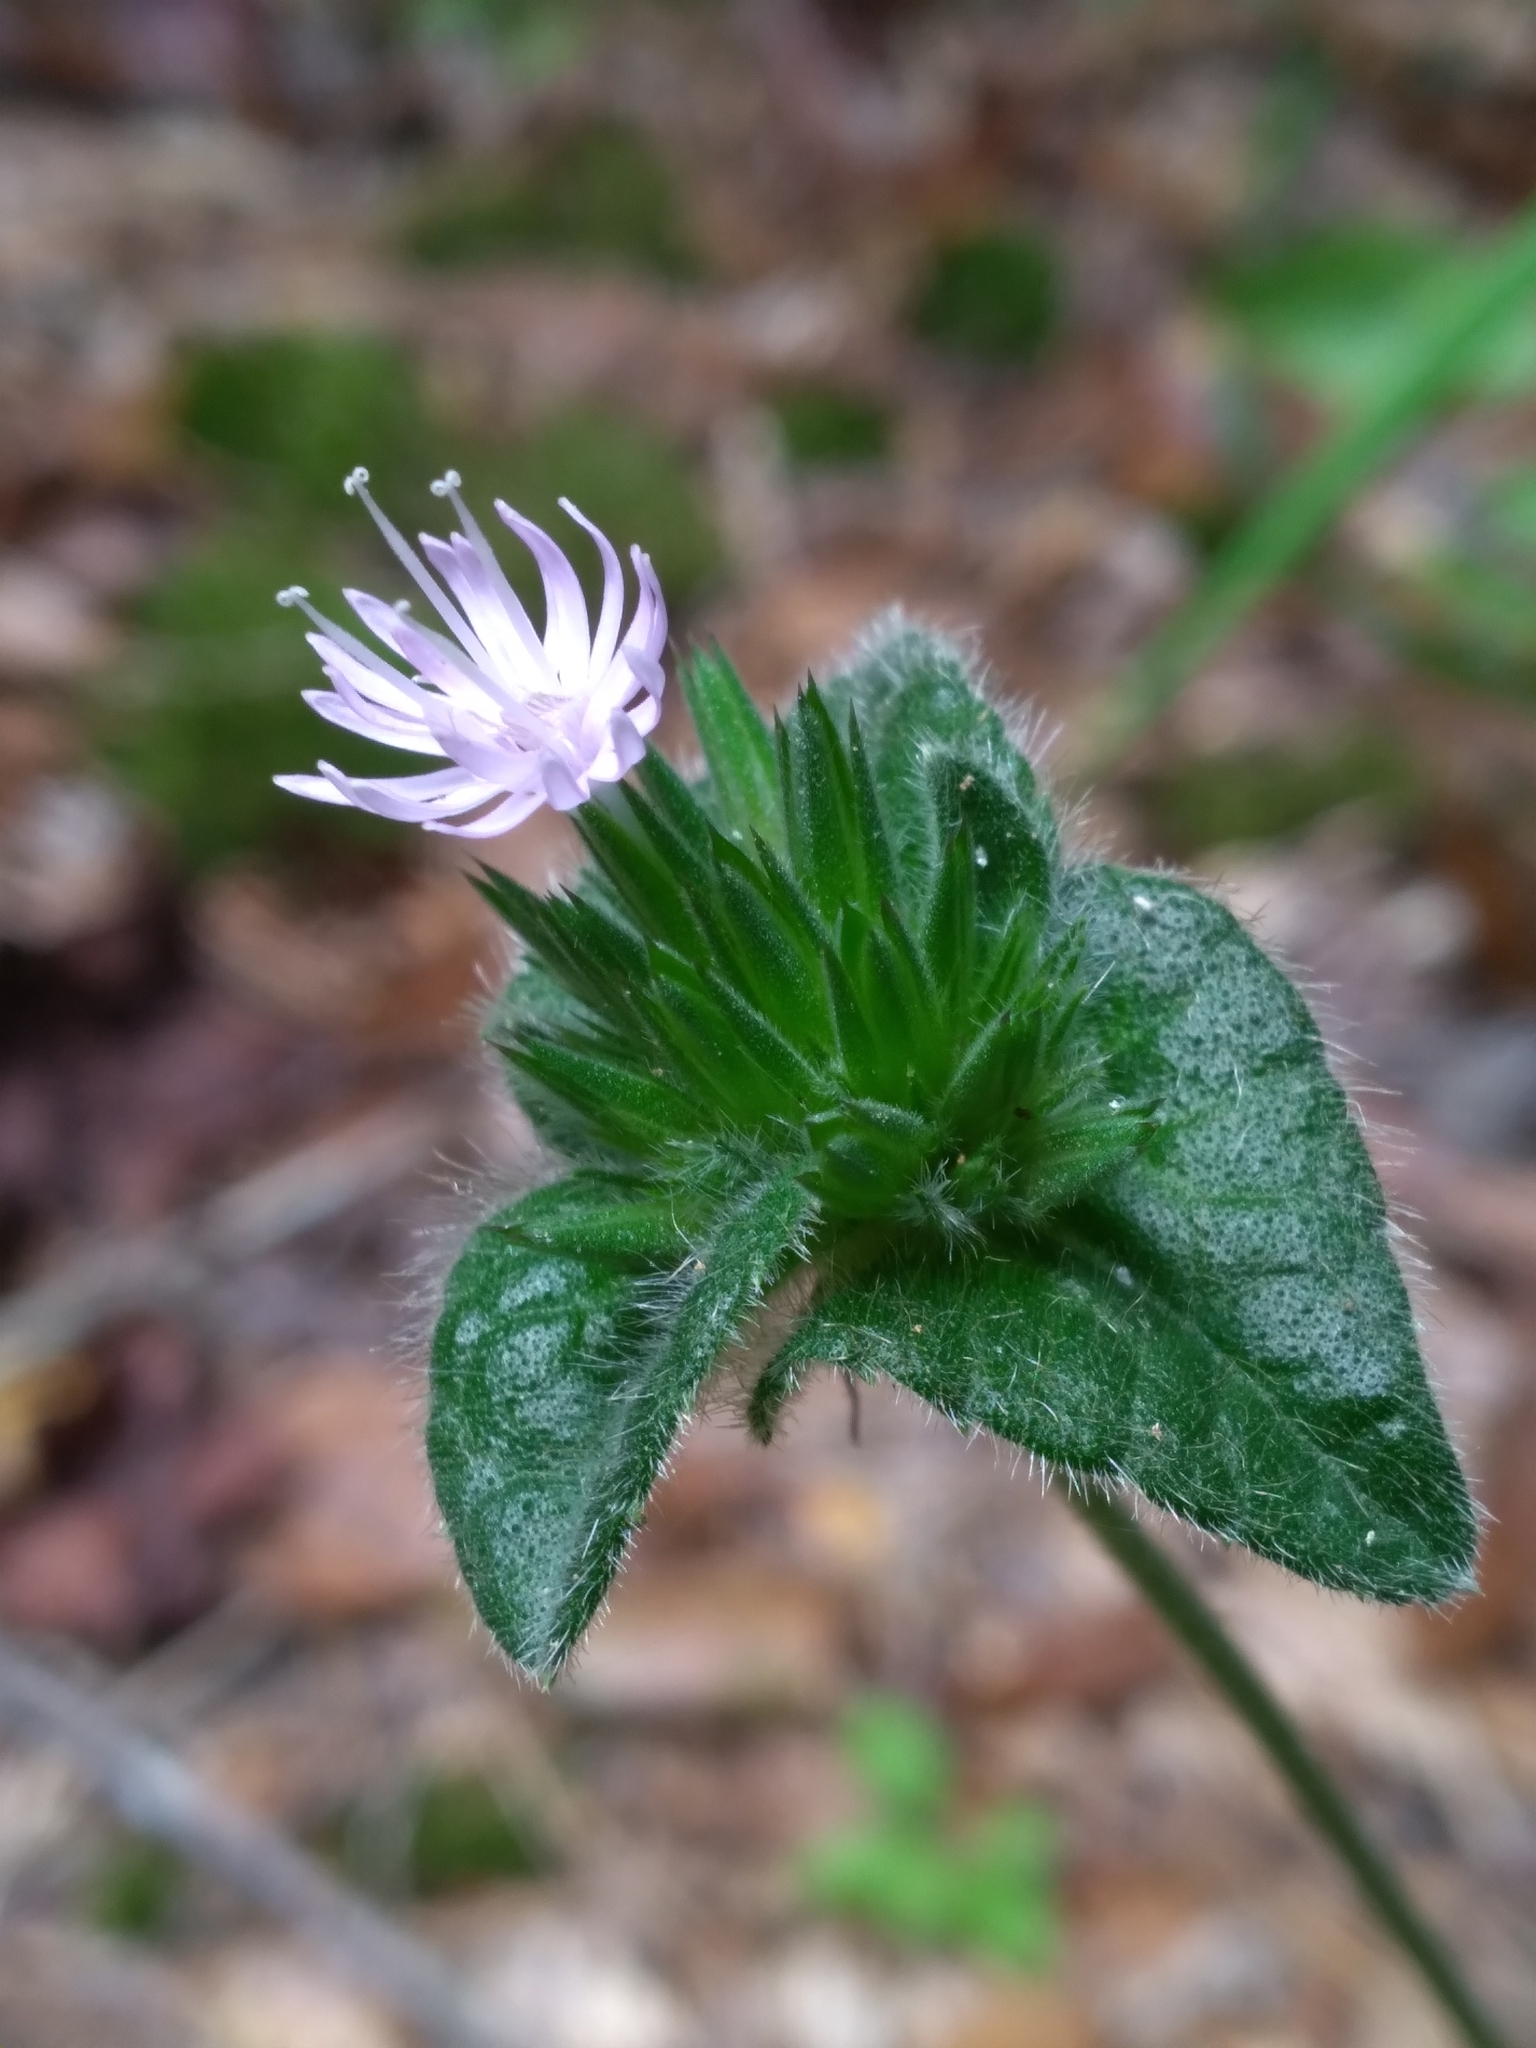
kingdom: Plantae
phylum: Tracheophyta
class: Magnoliopsida
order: Asterales
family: Asteraceae
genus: Elephantopus
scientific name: Elephantopus tomentosus
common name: Tobacco-weed
